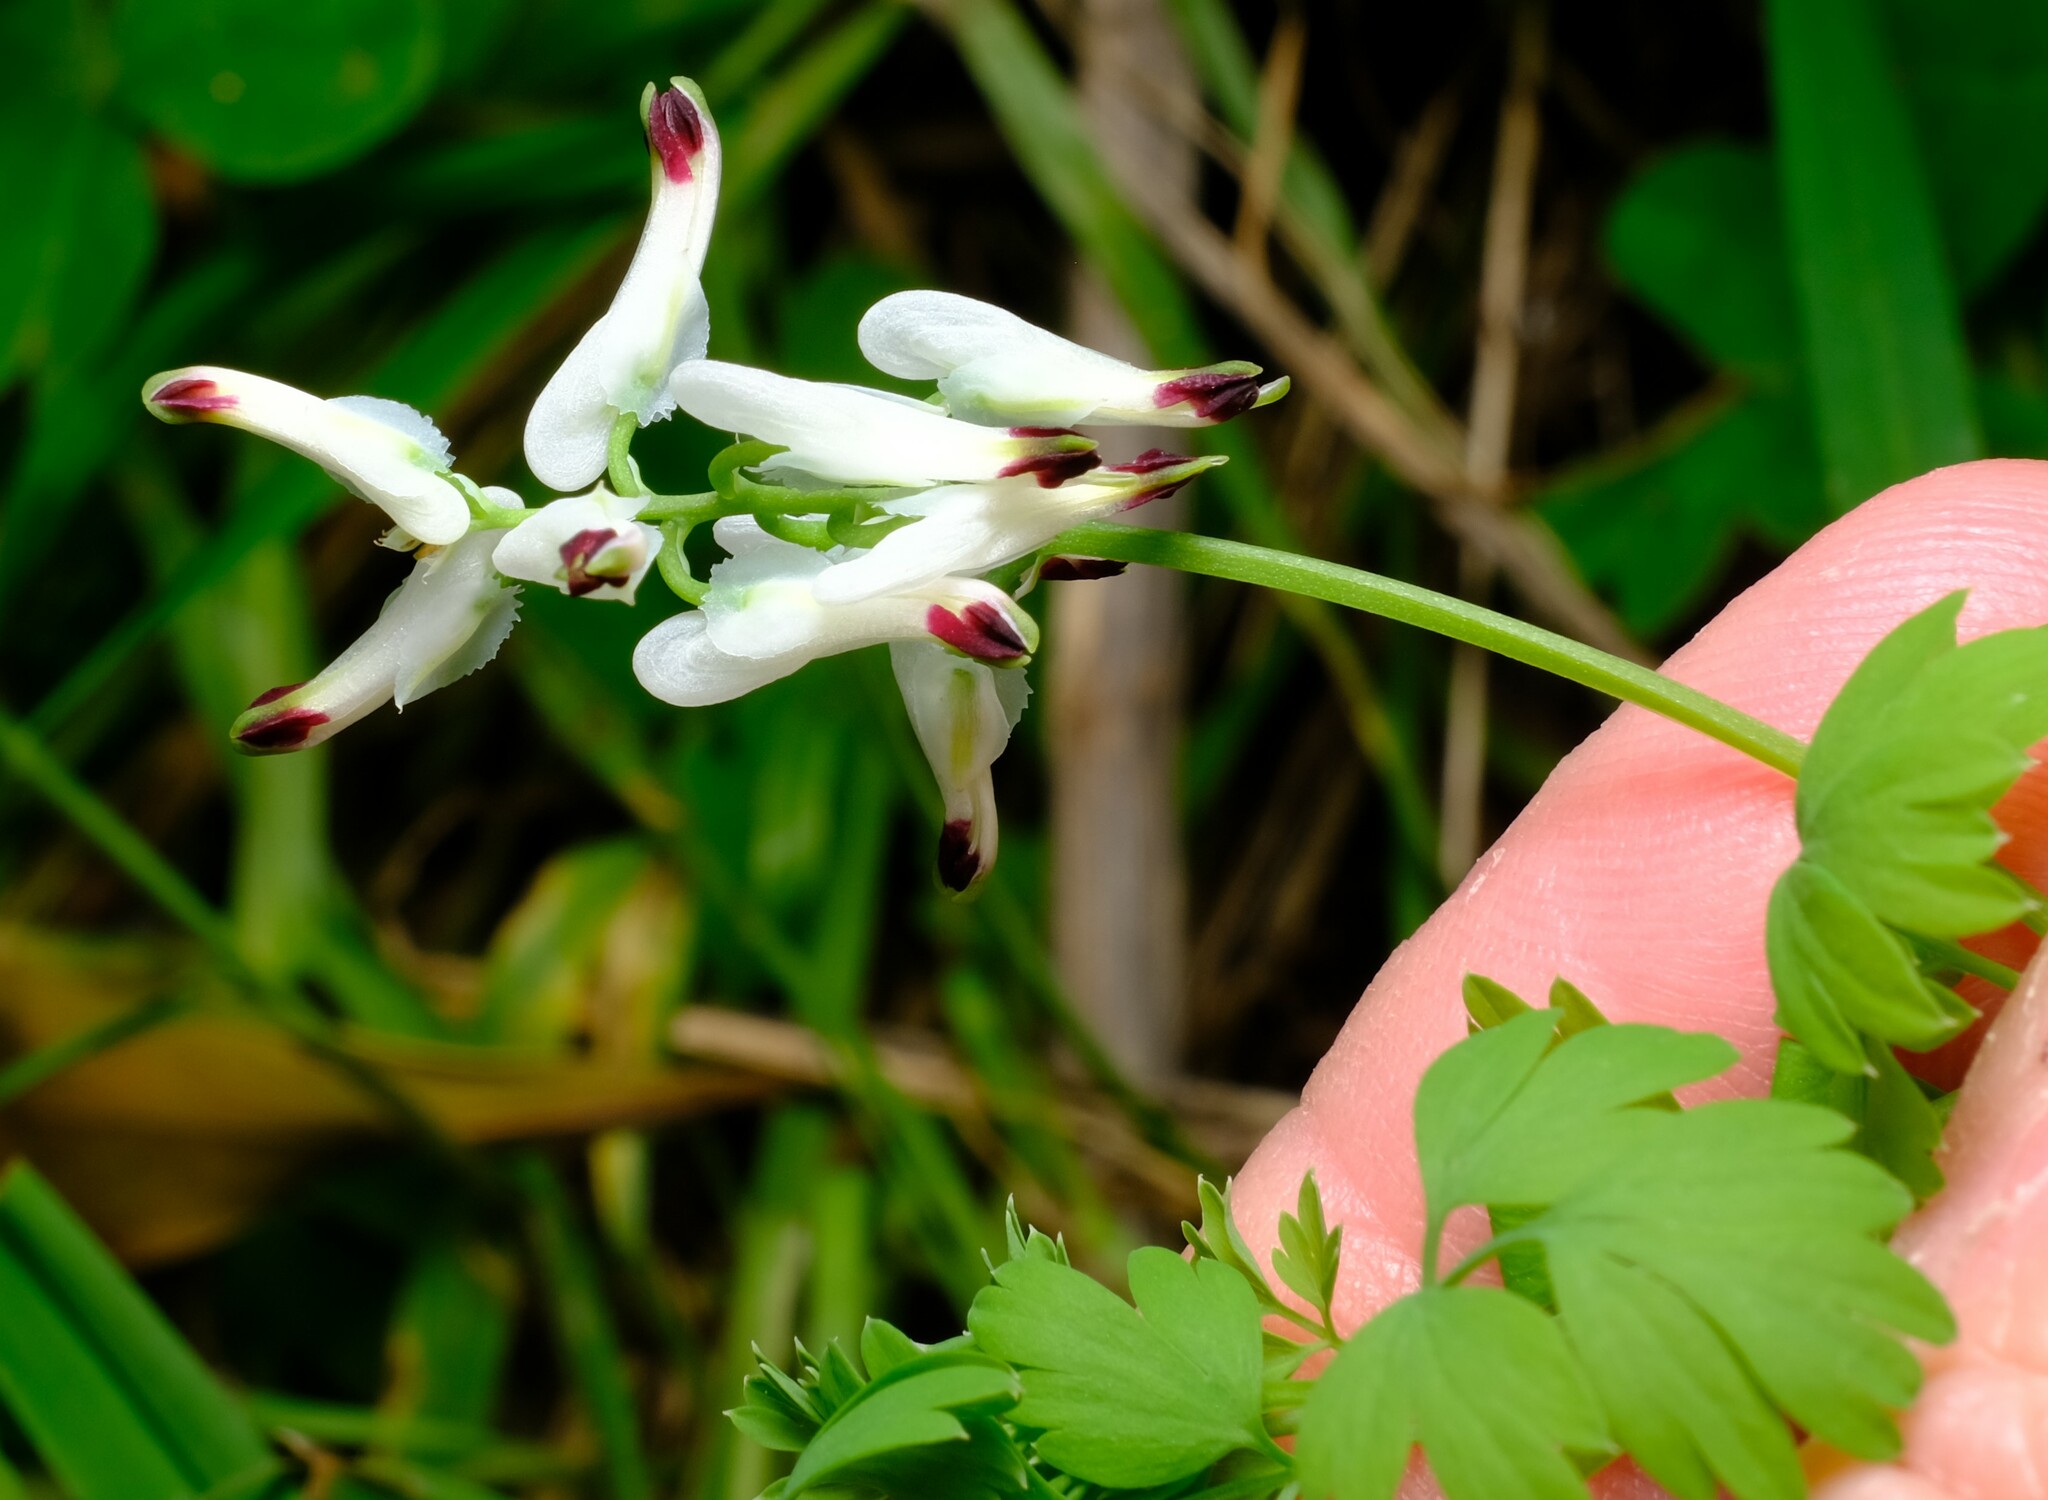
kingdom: Plantae
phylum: Tracheophyta
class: Magnoliopsida
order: Ranunculales
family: Papaveraceae
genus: Fumaria
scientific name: Fumaria capreolata
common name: White ramping-fumitory
